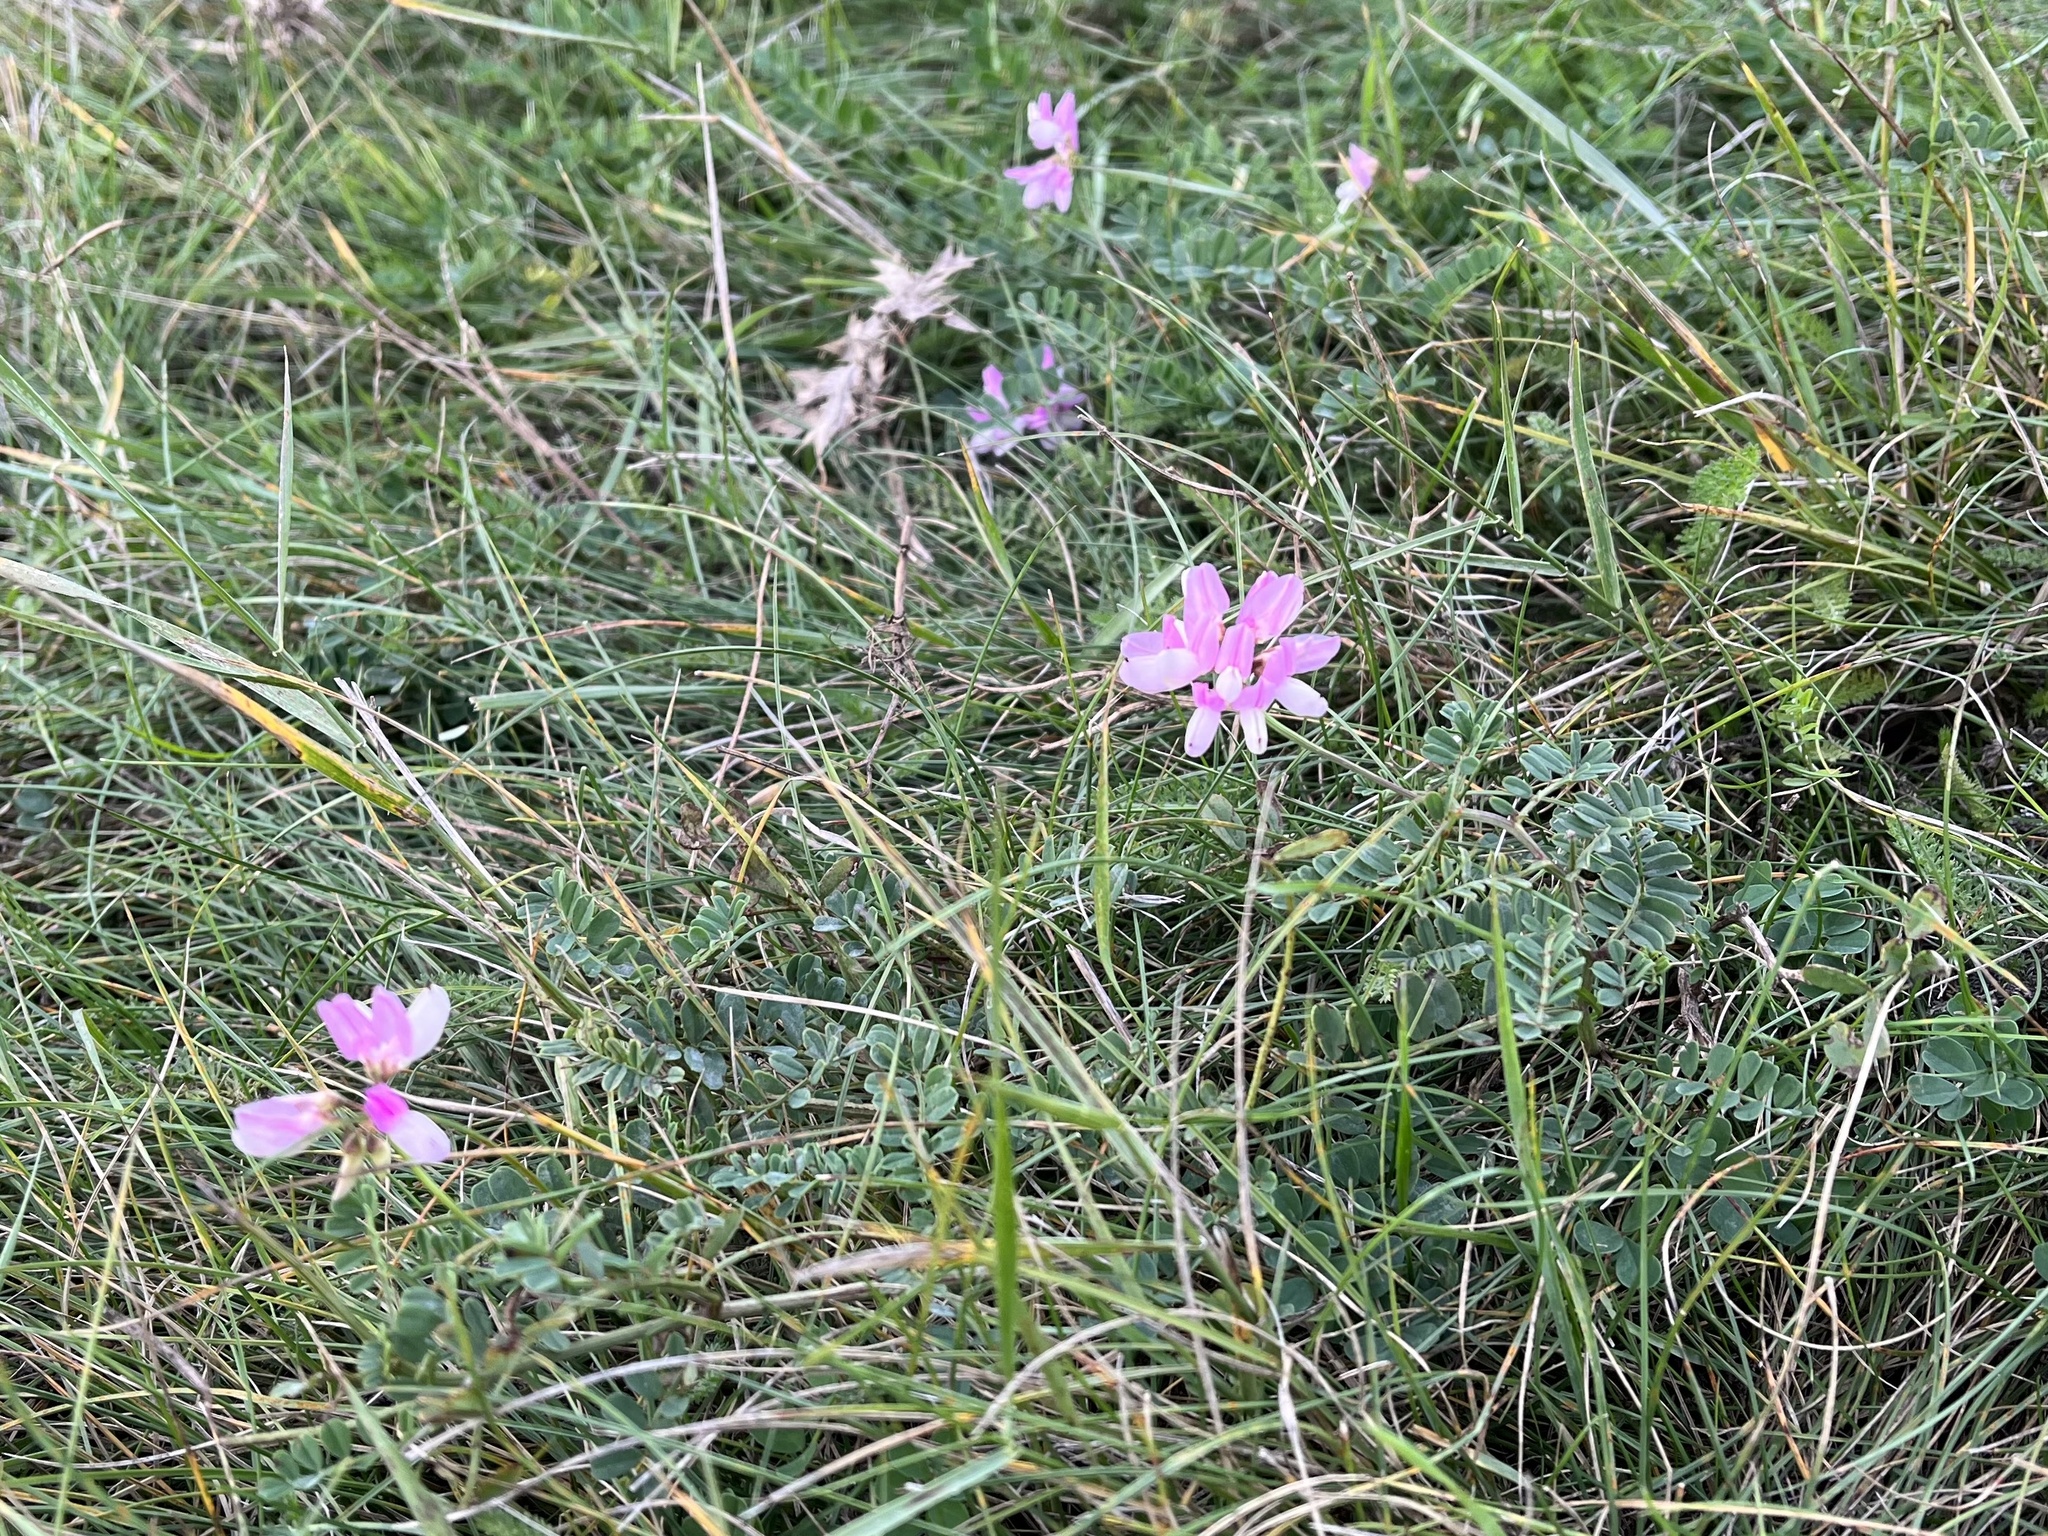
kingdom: Plantae
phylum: Tracheophyta
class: Magnoliopsida
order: Fabales
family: Fabaceae
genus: Coronilla
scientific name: Coronilla varia
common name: Crownvetch
